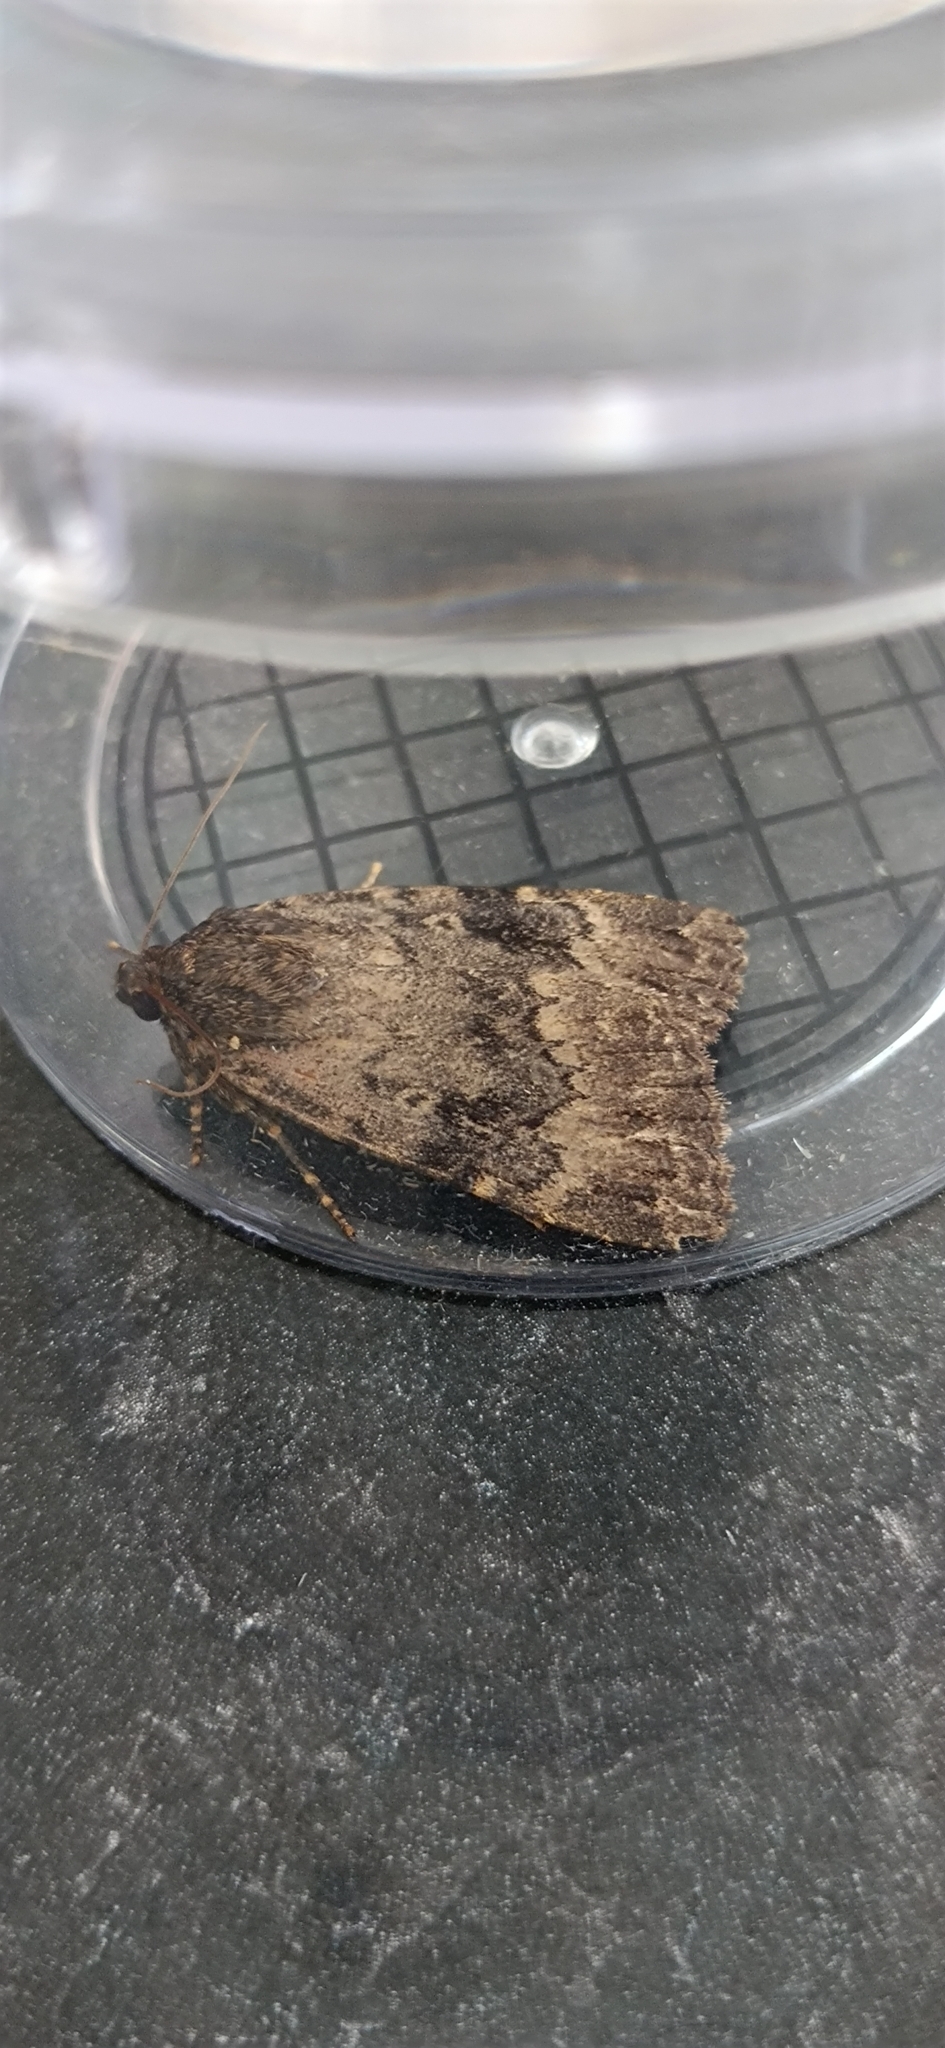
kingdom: Animalia
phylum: Arthropoda
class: Insecta
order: Lepidoptera
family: Noctuidae
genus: Amphipyra
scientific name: Amphipyra berbera
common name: Svensson's copper underwing
